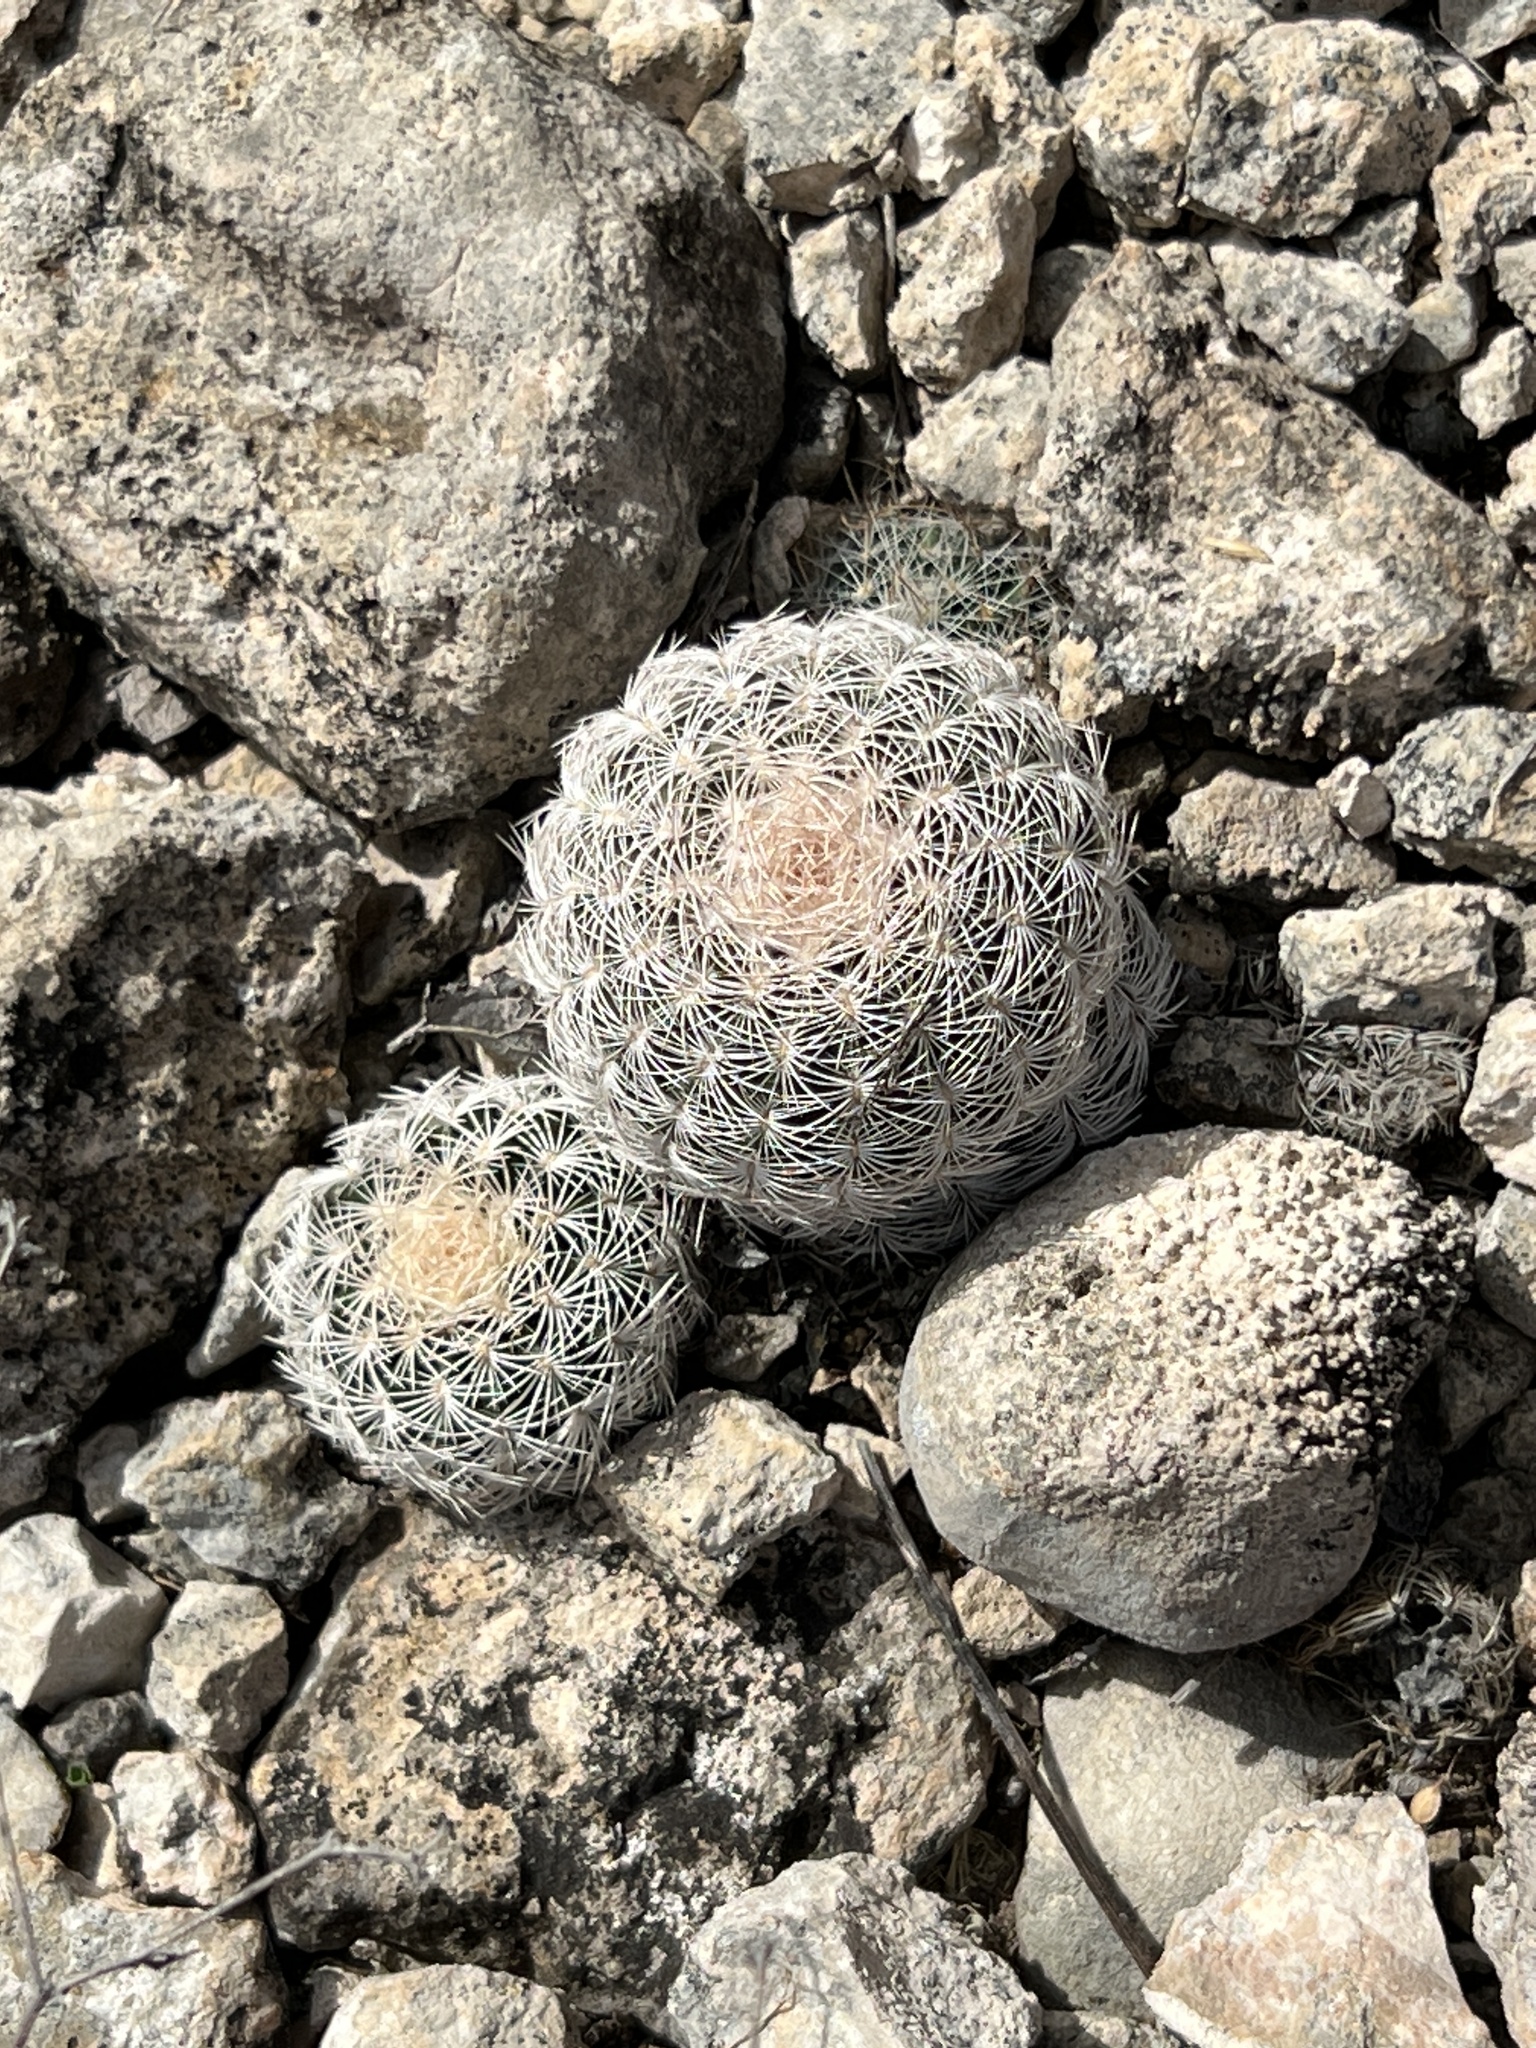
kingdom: Plantae
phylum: Tracheophyta
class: Magnoliopsida
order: Caryophyllales
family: Cactaceae
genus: Echinocereus
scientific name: Echinocereus reichenbachii
